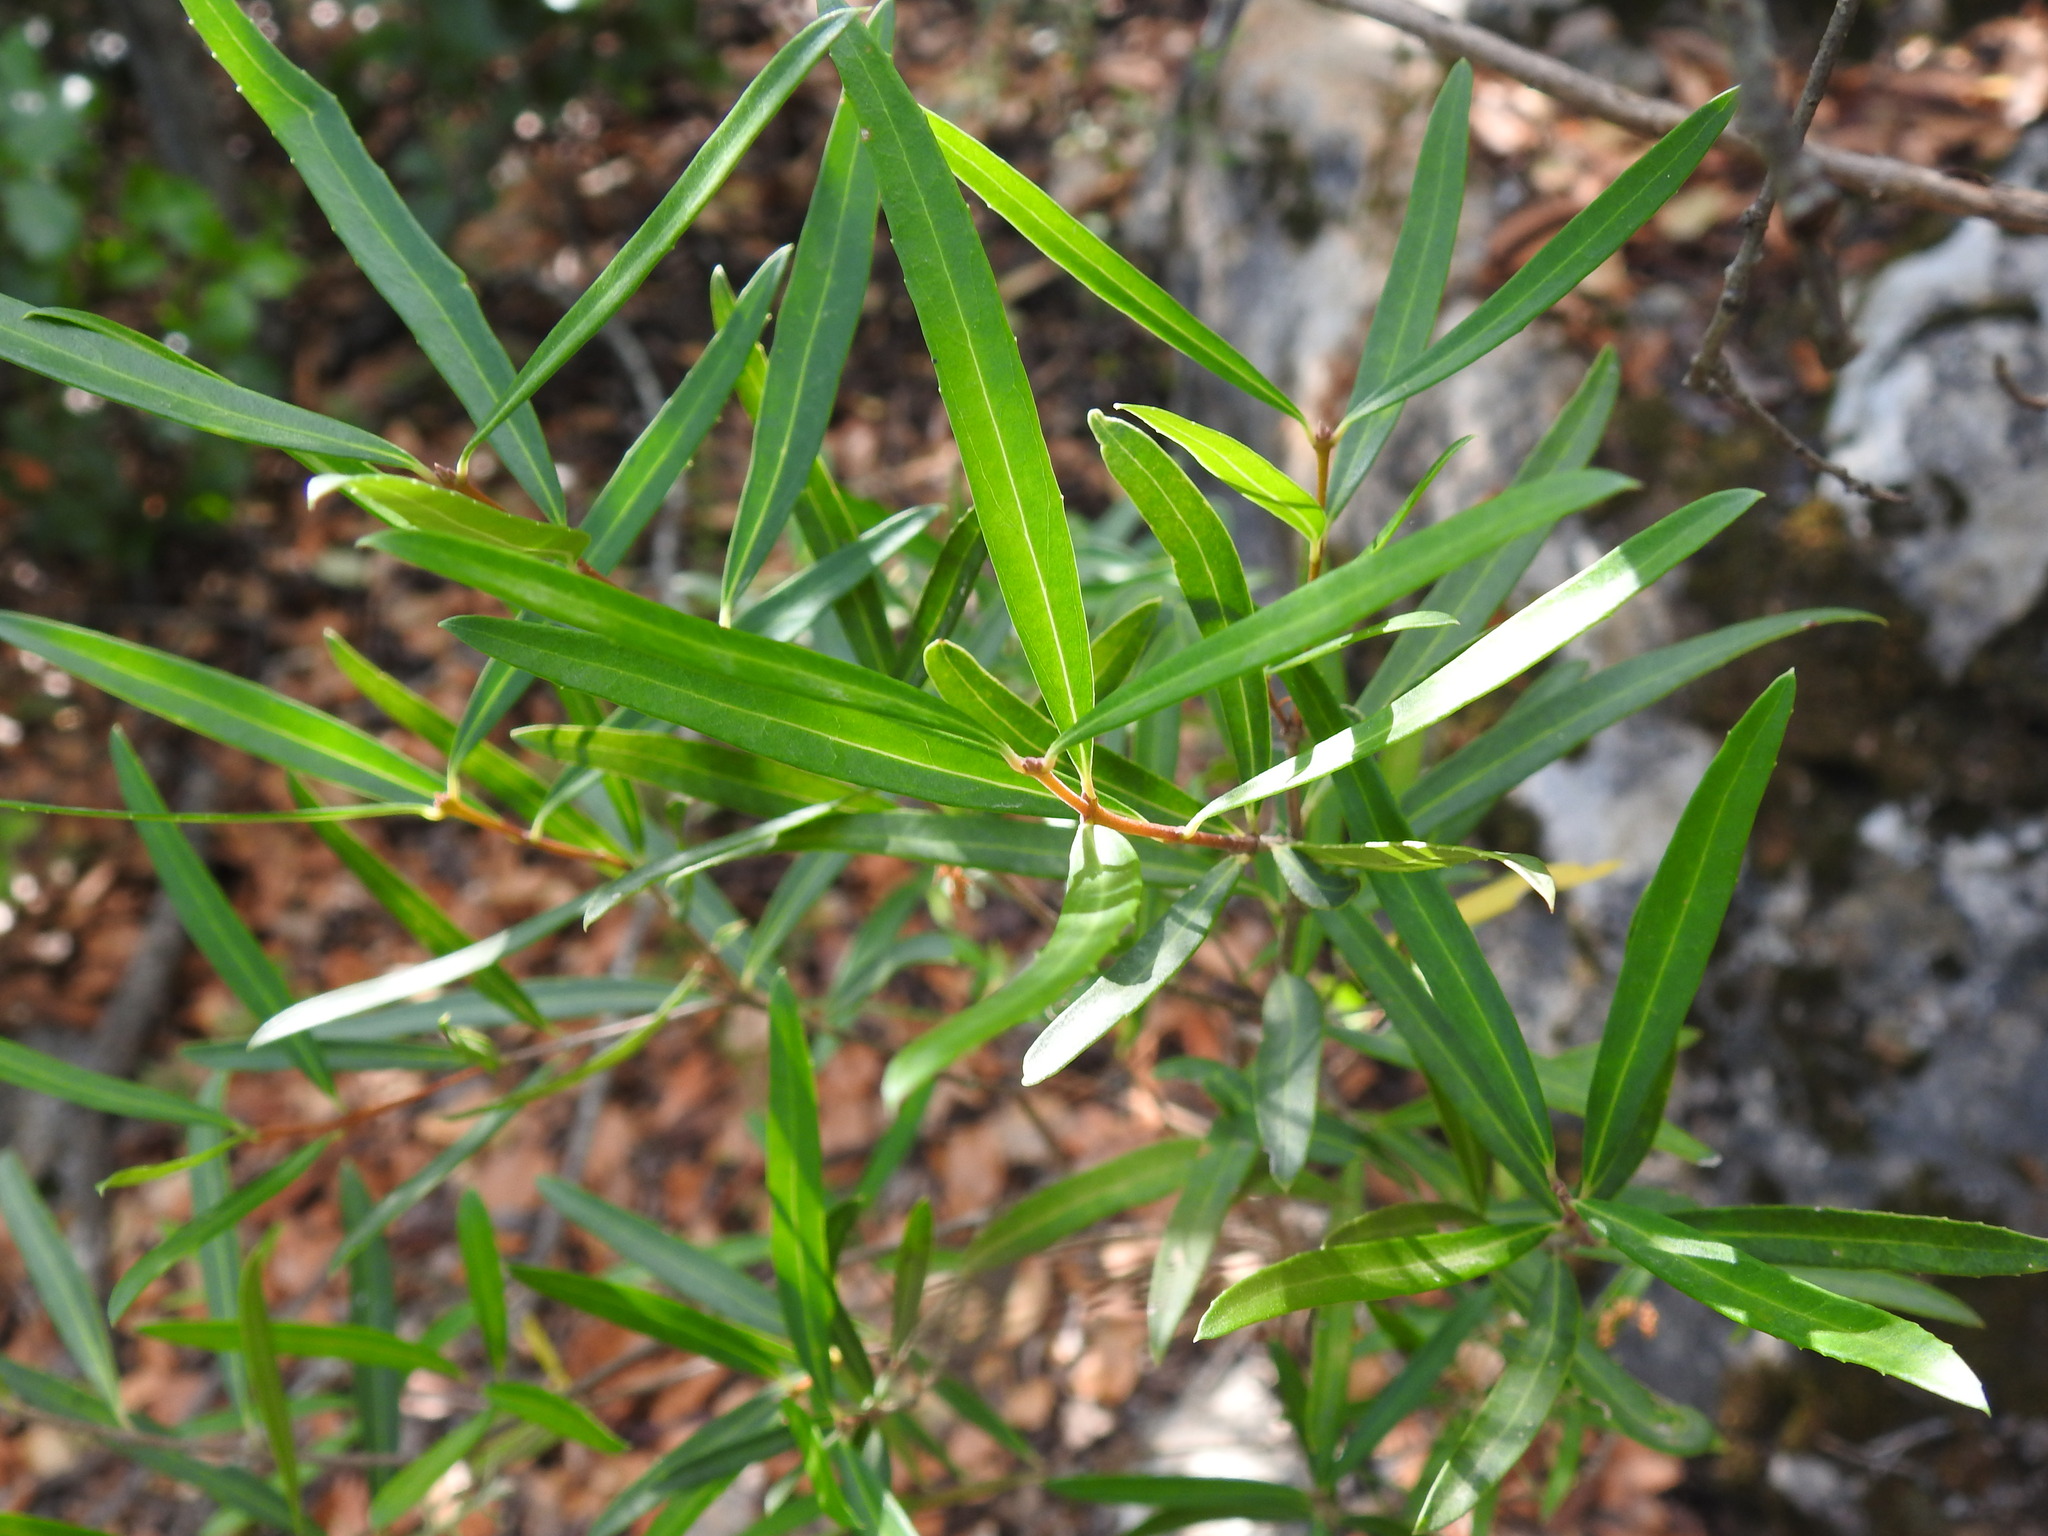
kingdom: Plantae
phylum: Tracheophyta
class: Magnoliopsida
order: Lamiales
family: Oleaceae
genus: Phillyrea
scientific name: Phillyrea angustifolia
